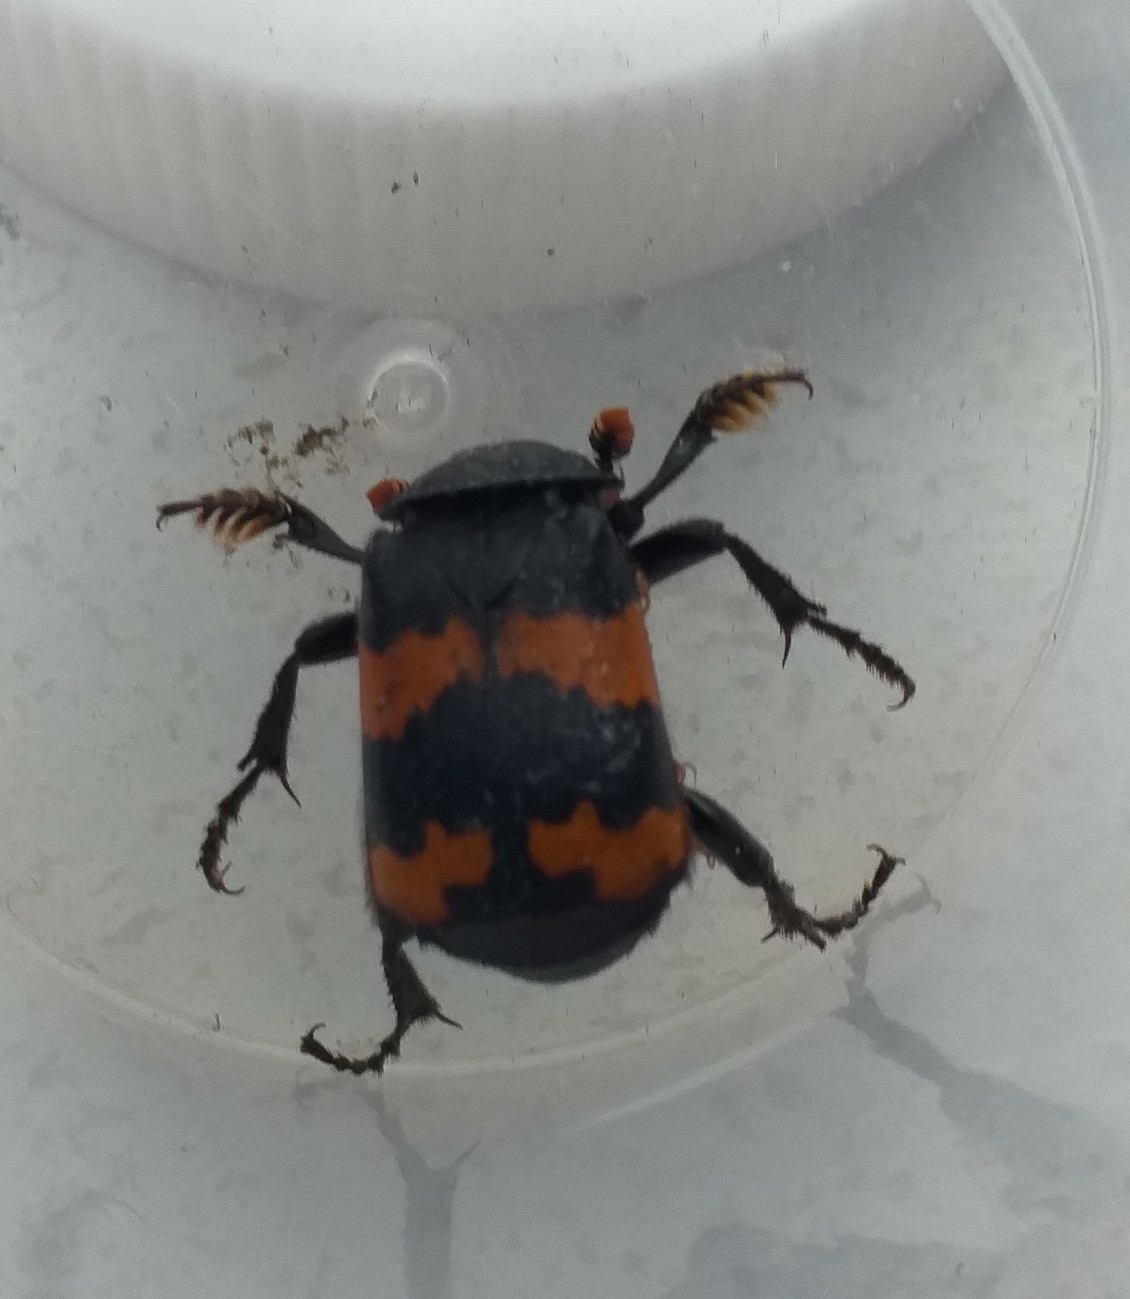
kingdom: Animalia
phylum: Arthropoda
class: Insecta
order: Coleoptera
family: Staphylinidae
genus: Nicrophorus
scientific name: Nicrophorus investigator
